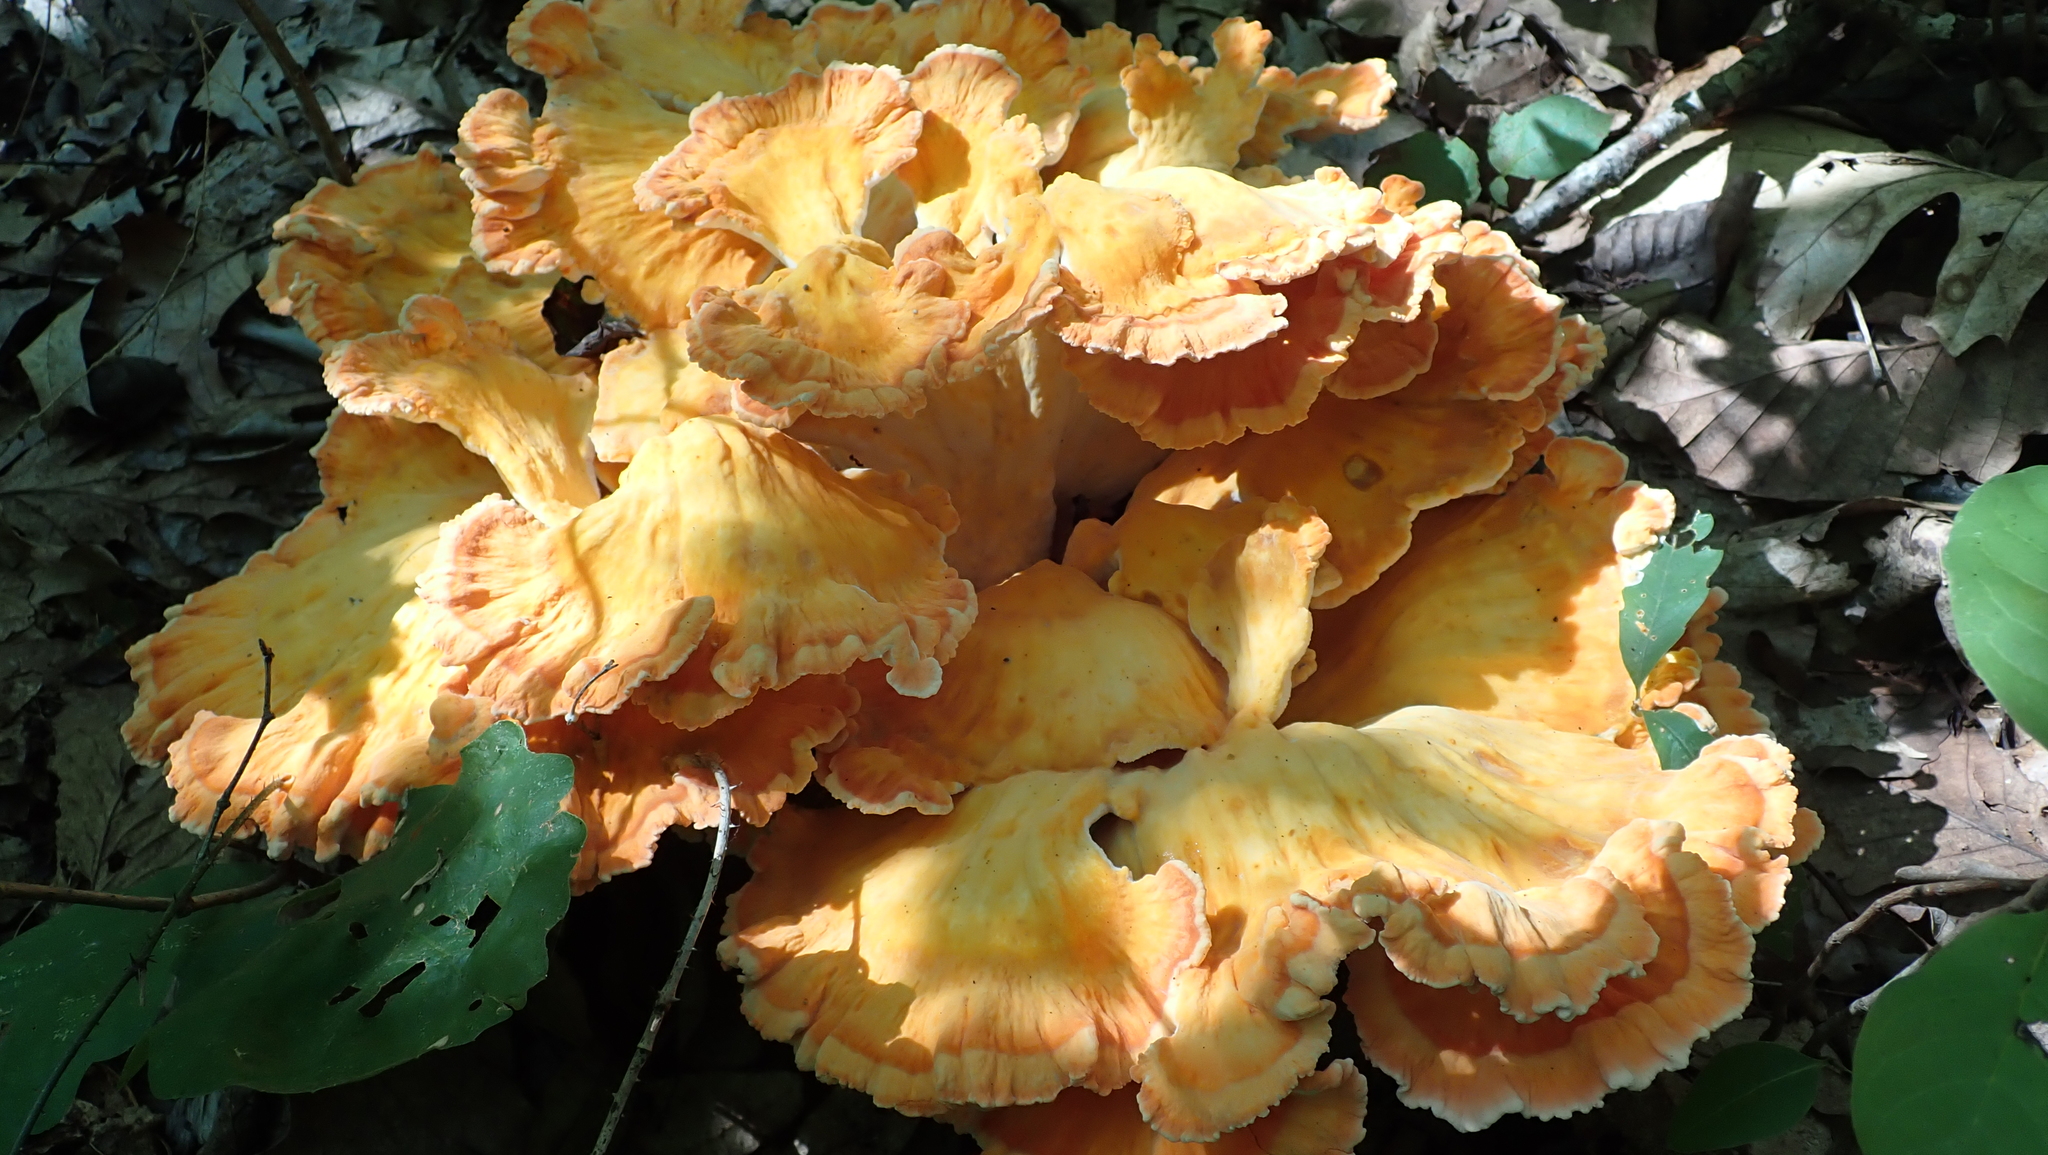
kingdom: Fungi
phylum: Basidiomycota
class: Agaricomycetes
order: Polyporales
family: Laetiporaceae
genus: Laetiporus
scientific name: Laetiporus sulphureus
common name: Chicken of the woods
